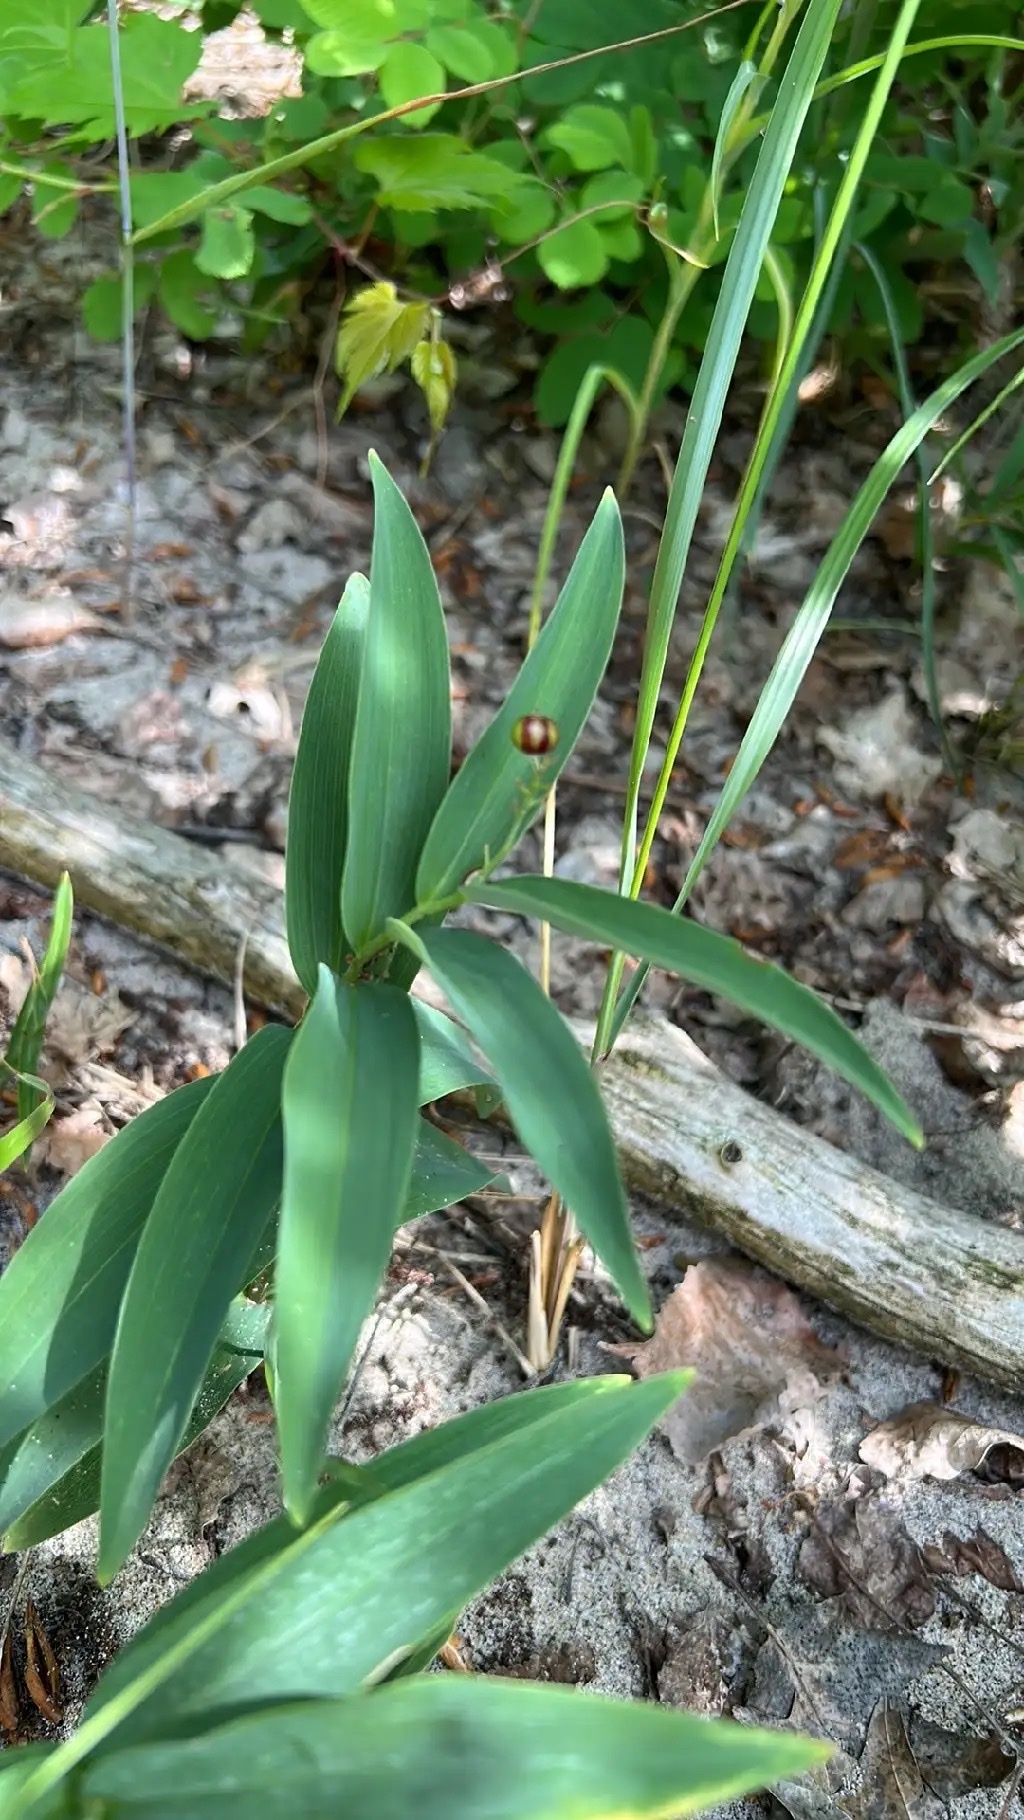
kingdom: Plantae
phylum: Tracheophyta
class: Liliopsida
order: Asparagales
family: Asparagaceae
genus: Maianthemum
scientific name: Maianthemum stellatum
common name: Little false solomon's seal
